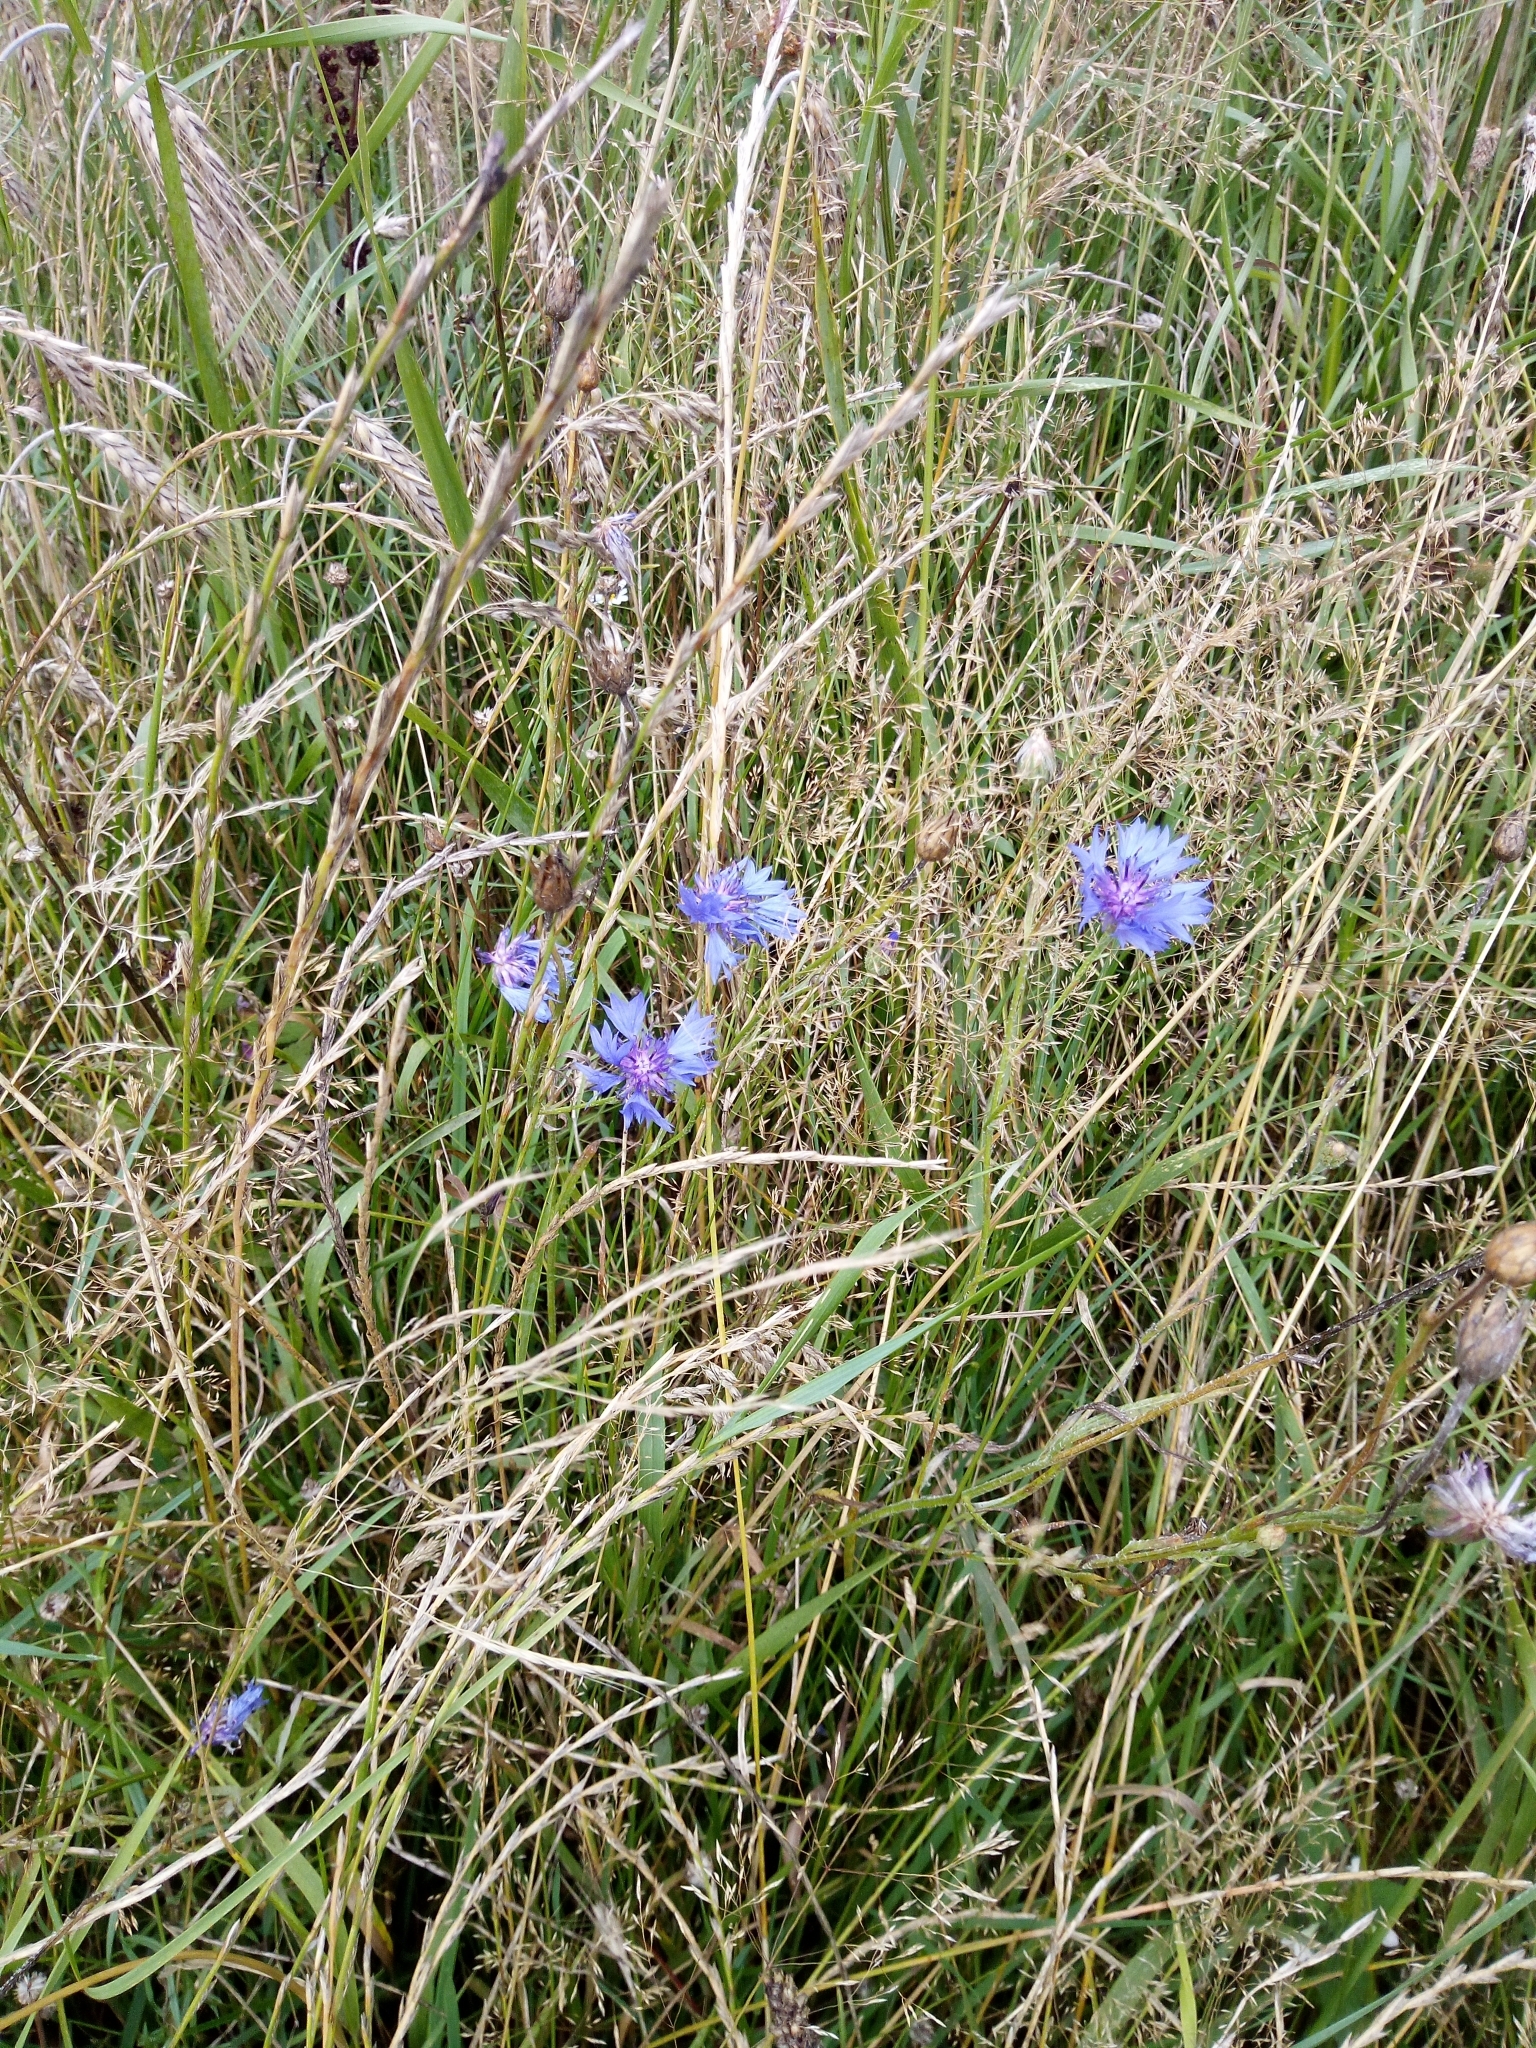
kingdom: Plantae
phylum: Tracheophyta
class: Magnoliopsida
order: Asterales
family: Asteraceae
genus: Centaurea
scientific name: Centaurea cyanus
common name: Cornflower
